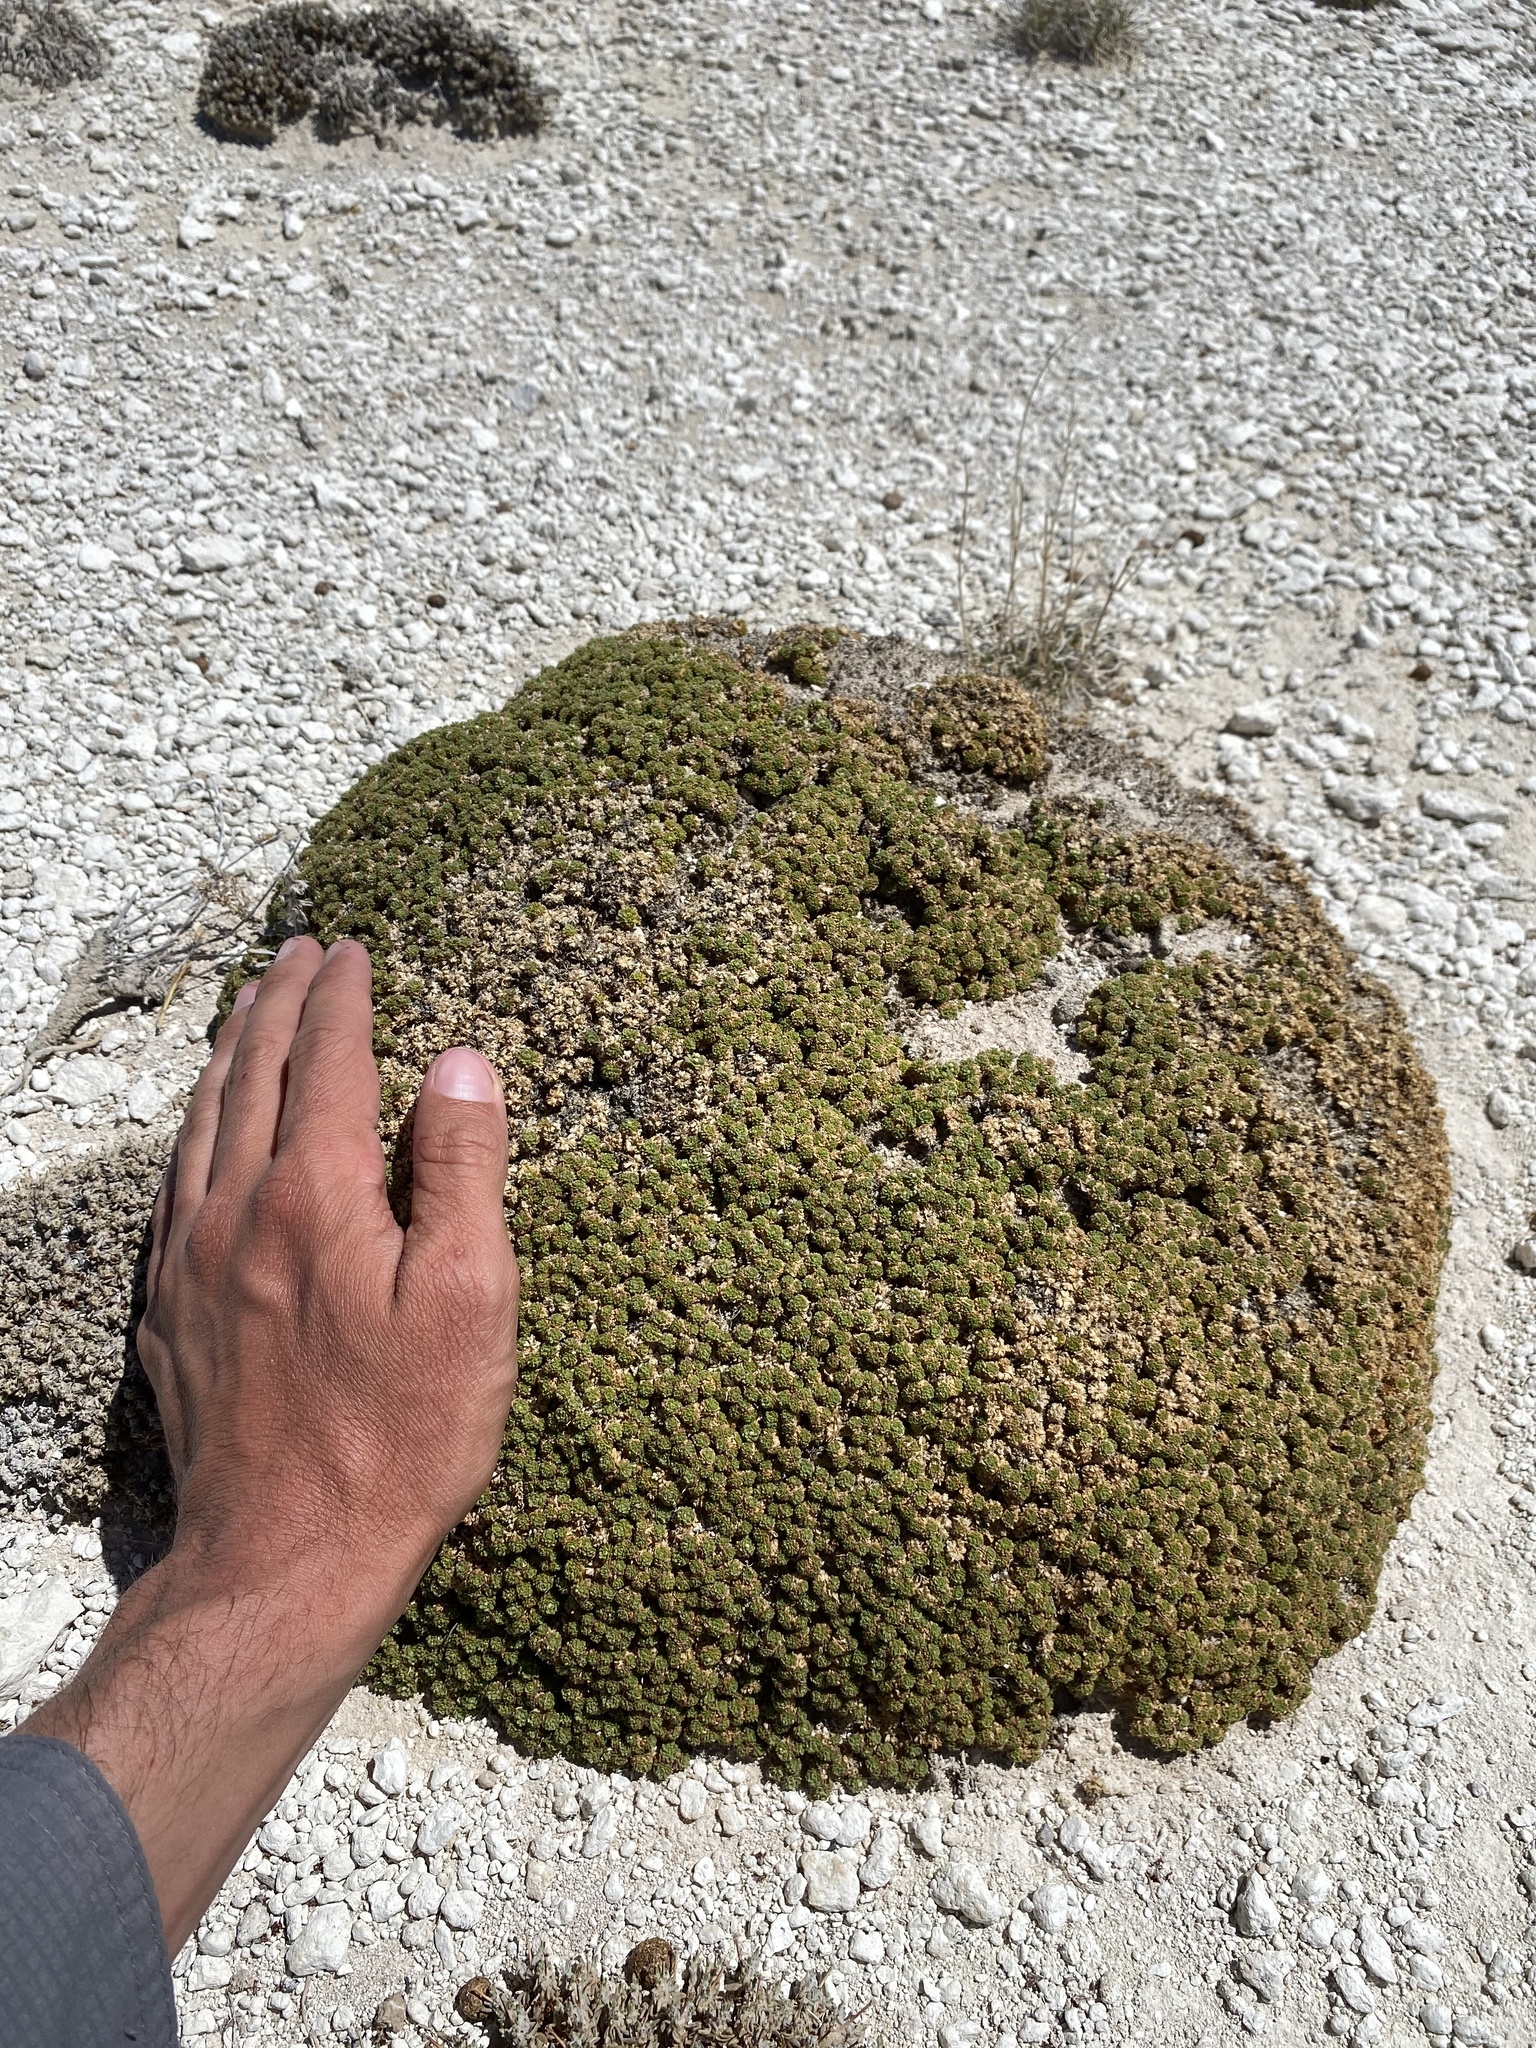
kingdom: Plantae
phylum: Tracheophyta
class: Magnoliopsida
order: Brassicales
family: Brassicaceae
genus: Lepidium
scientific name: Lepidium nanum
